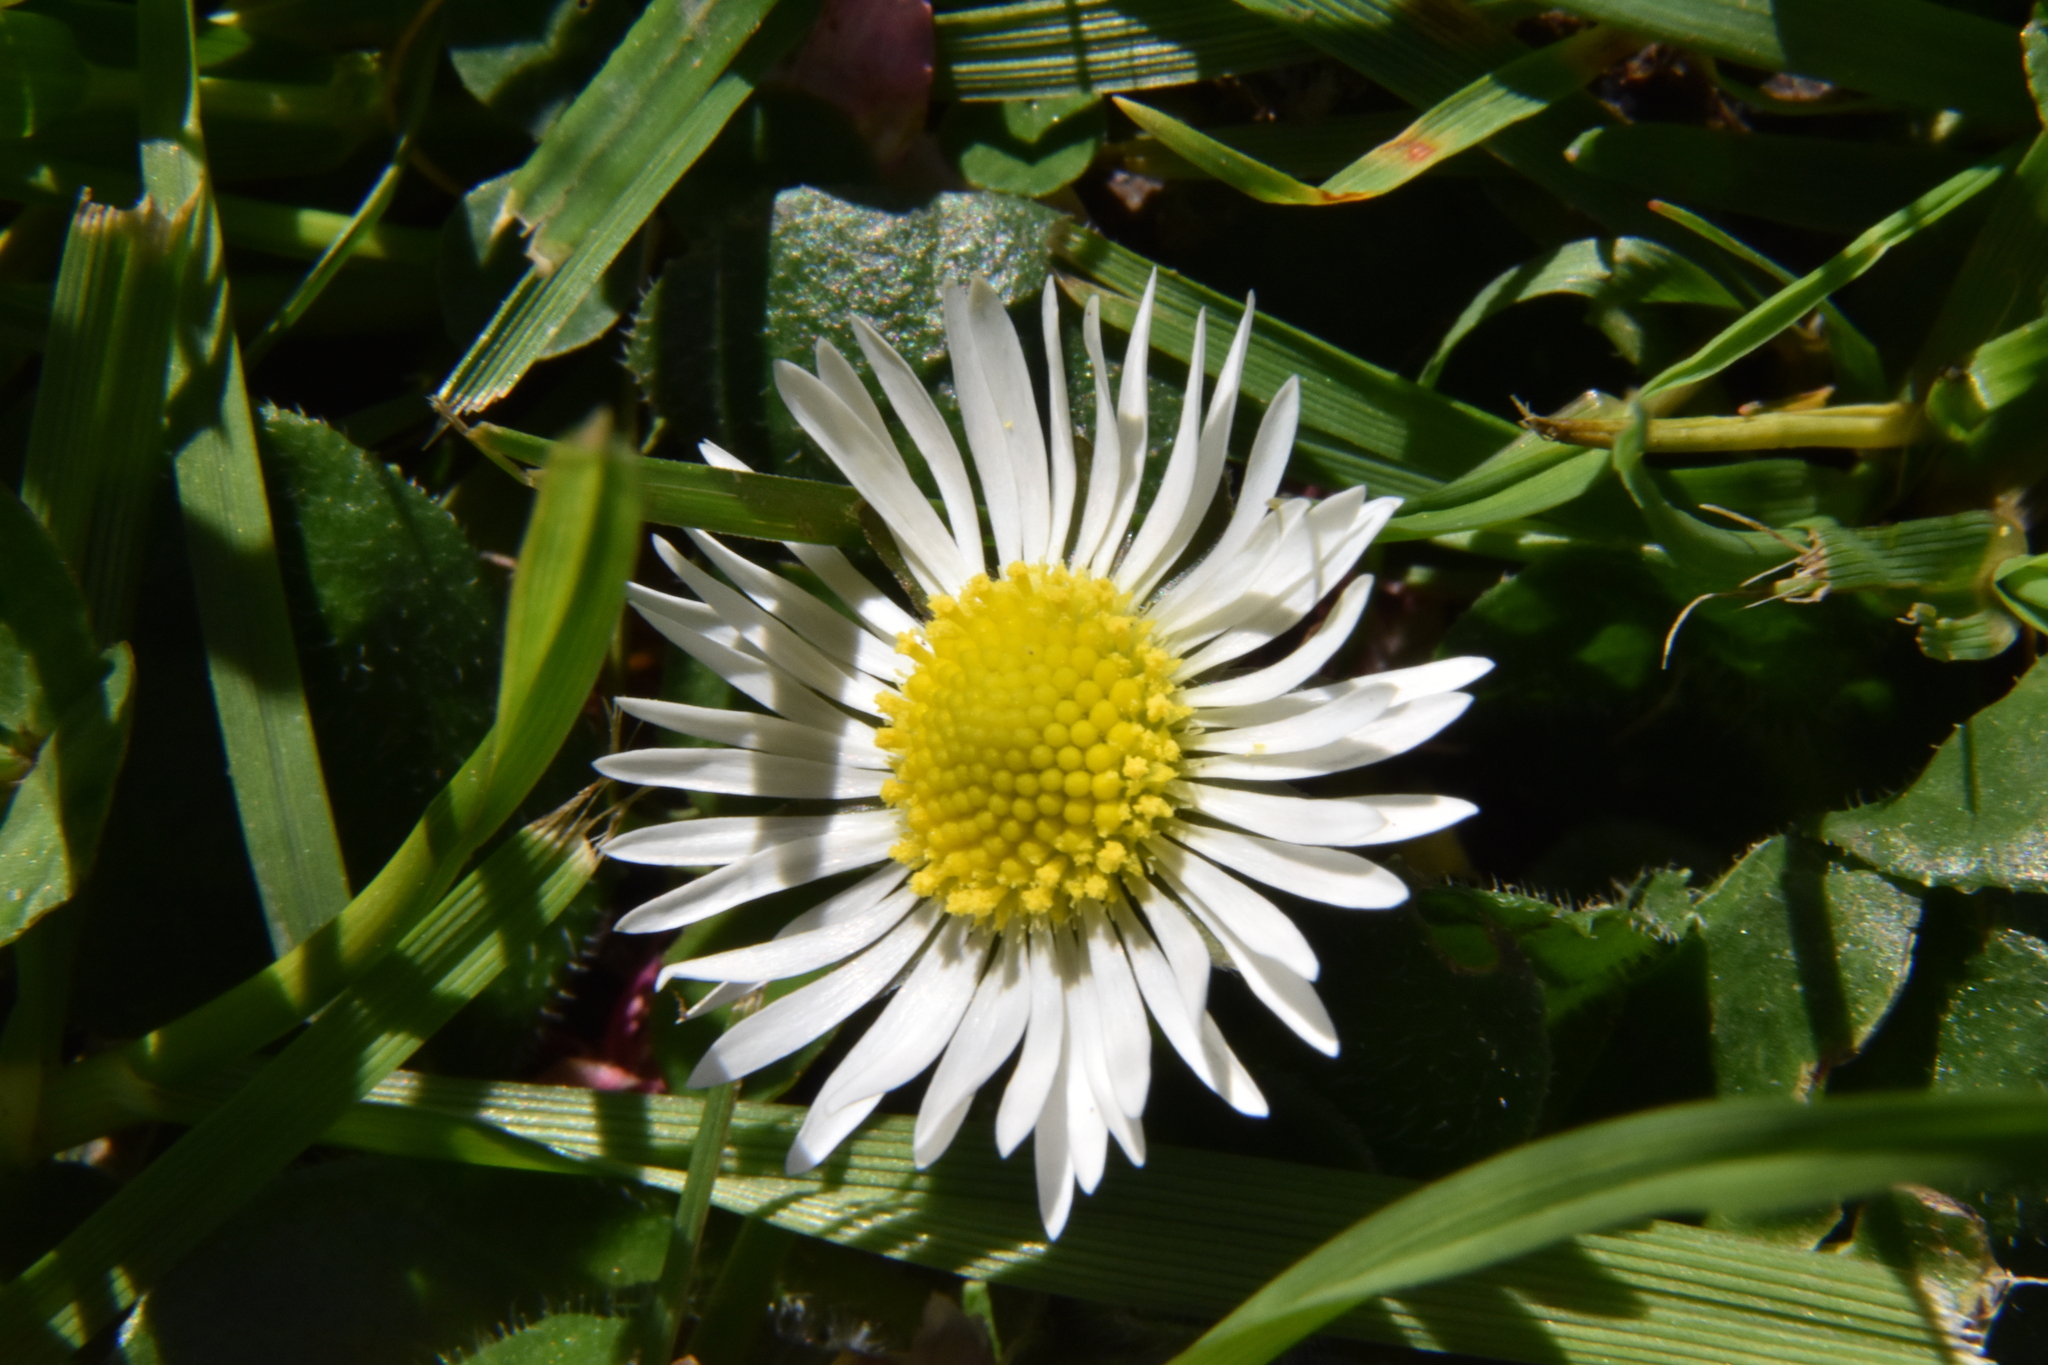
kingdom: Plantae
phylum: Tracheophyta
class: Magnoliopsida
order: Asterales
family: Asteraceae
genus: Bellis
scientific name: Bellis perennis
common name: Lawndaisy
